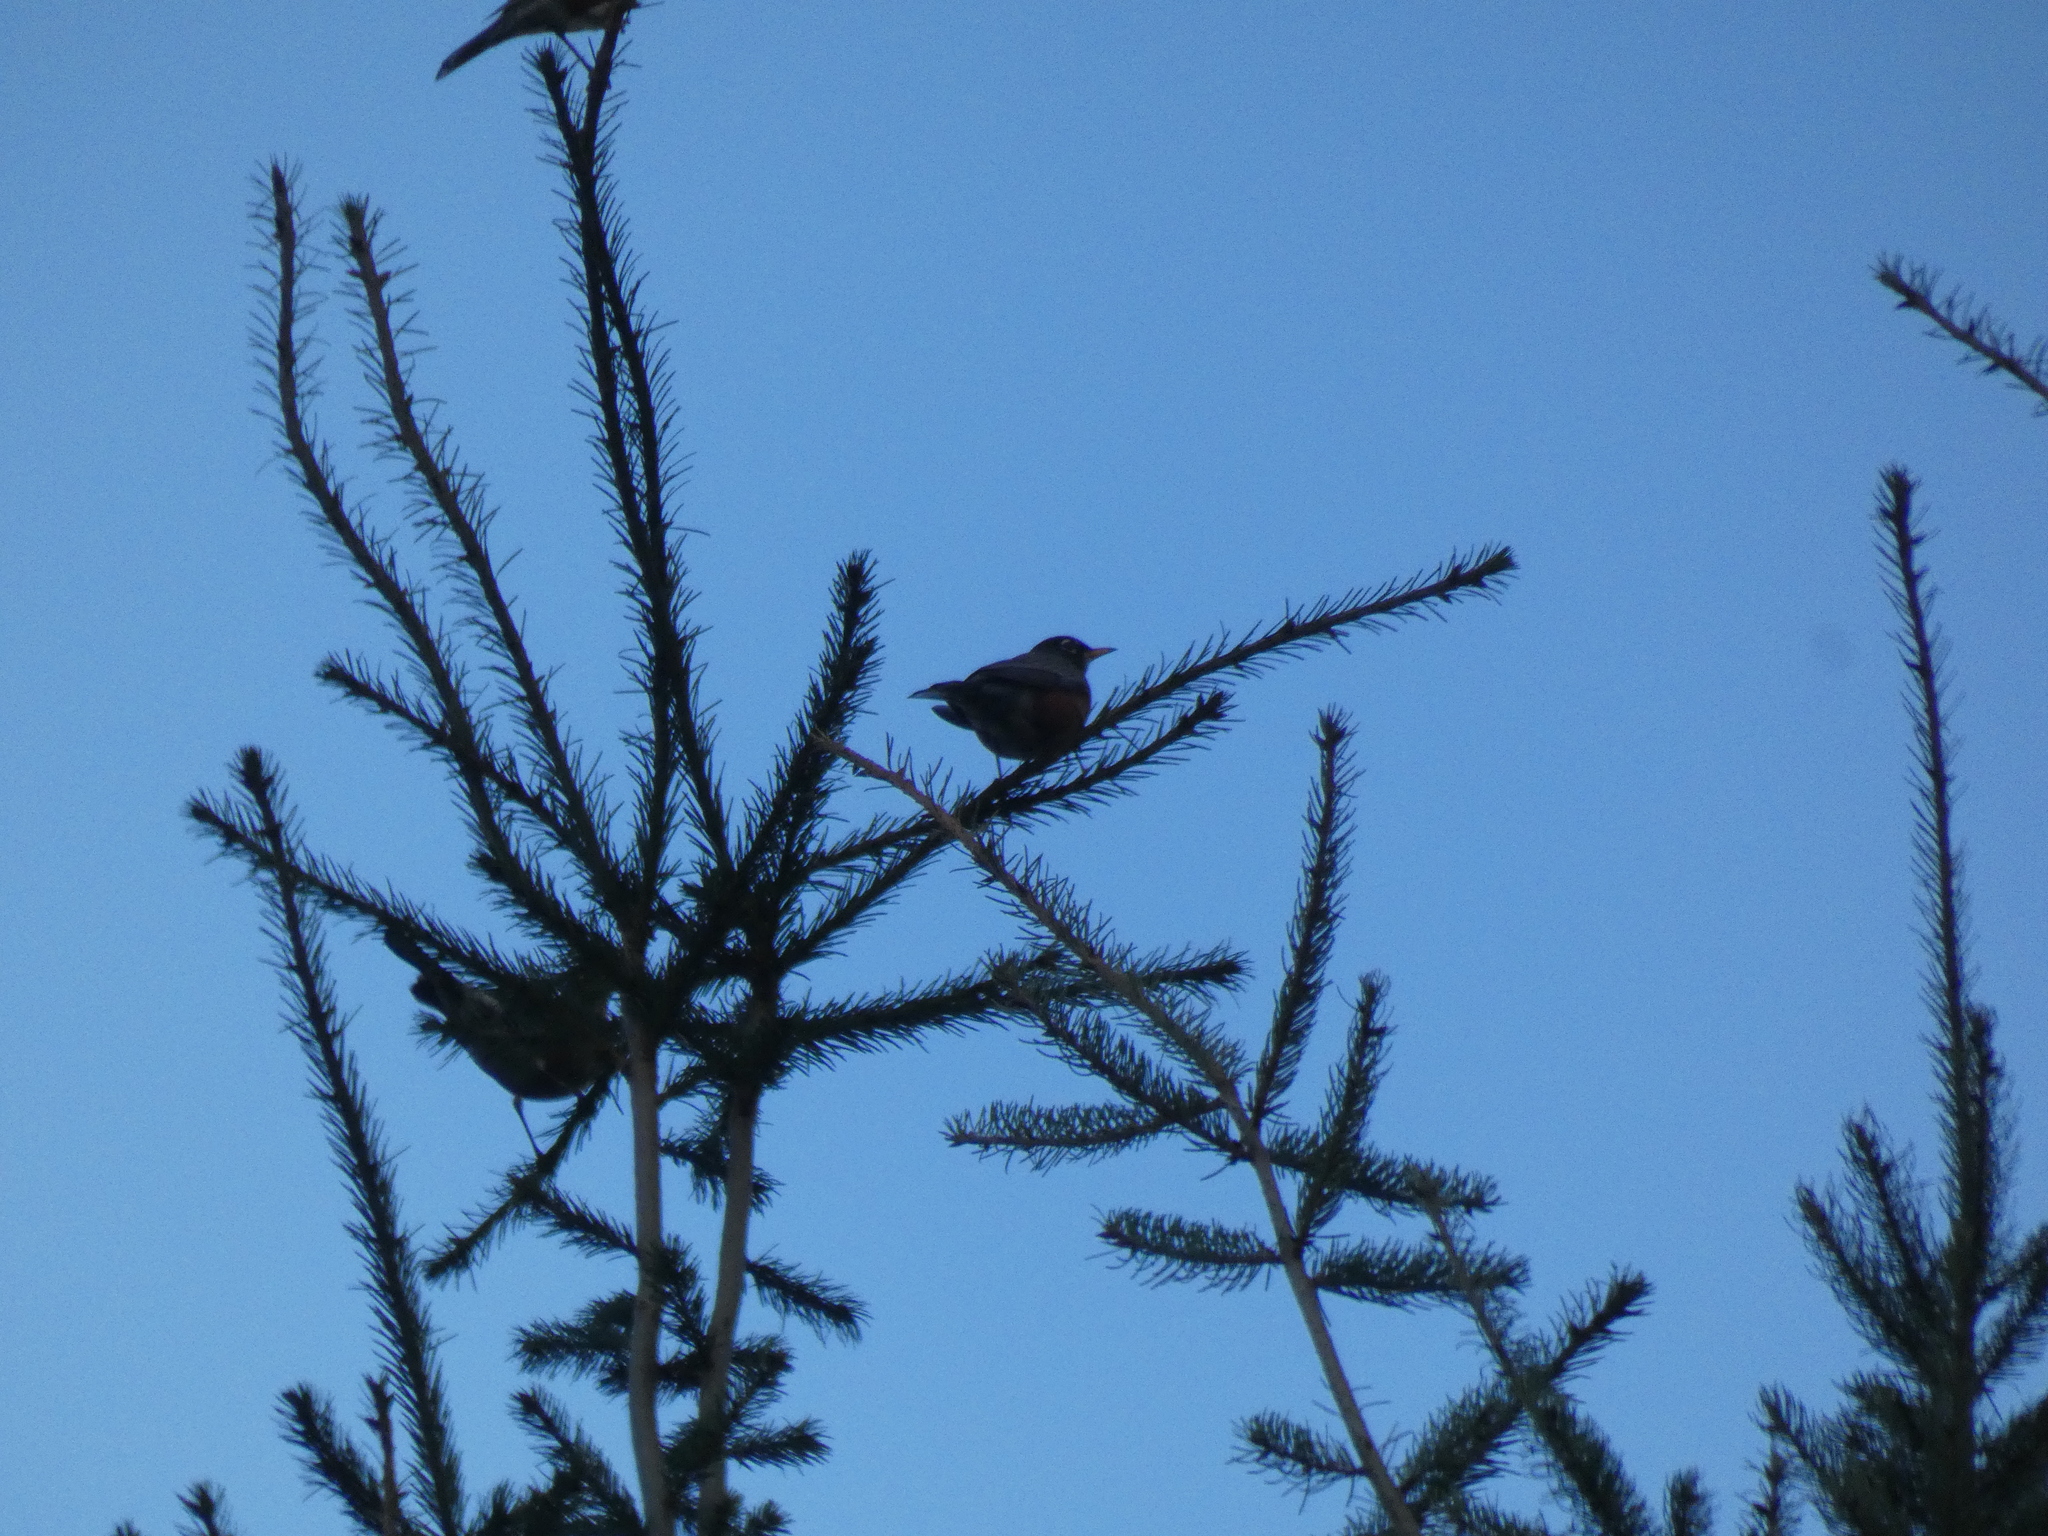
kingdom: Animalia
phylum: Chordata
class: Aves
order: Passeriformes
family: Turdidae
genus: Turdus
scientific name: Turdus migratorius
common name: American robin
